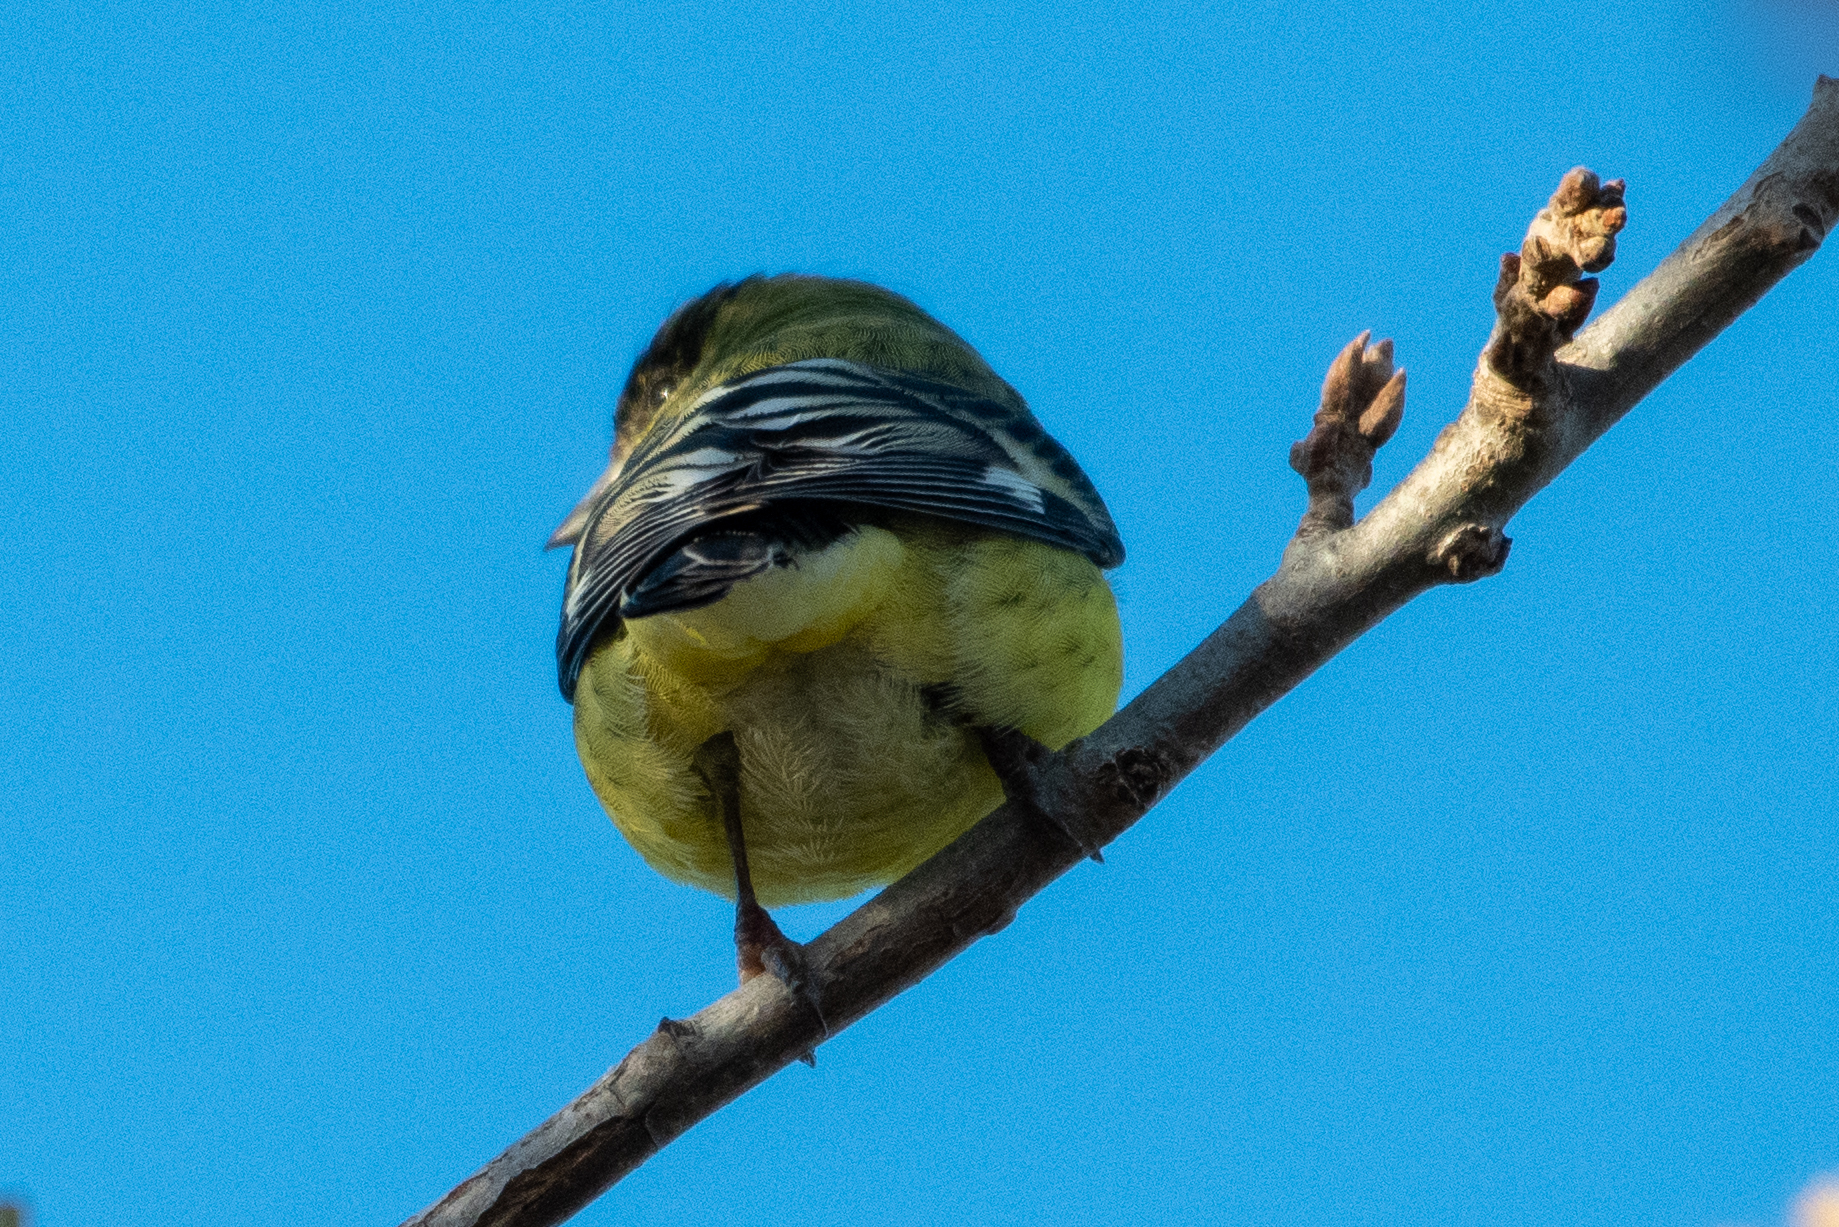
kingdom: Animalia
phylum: Chordata
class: Aves
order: Passeriformes
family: Fringillidae
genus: Spinus
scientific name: Spinus psaltria
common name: Lesser goldfinch
